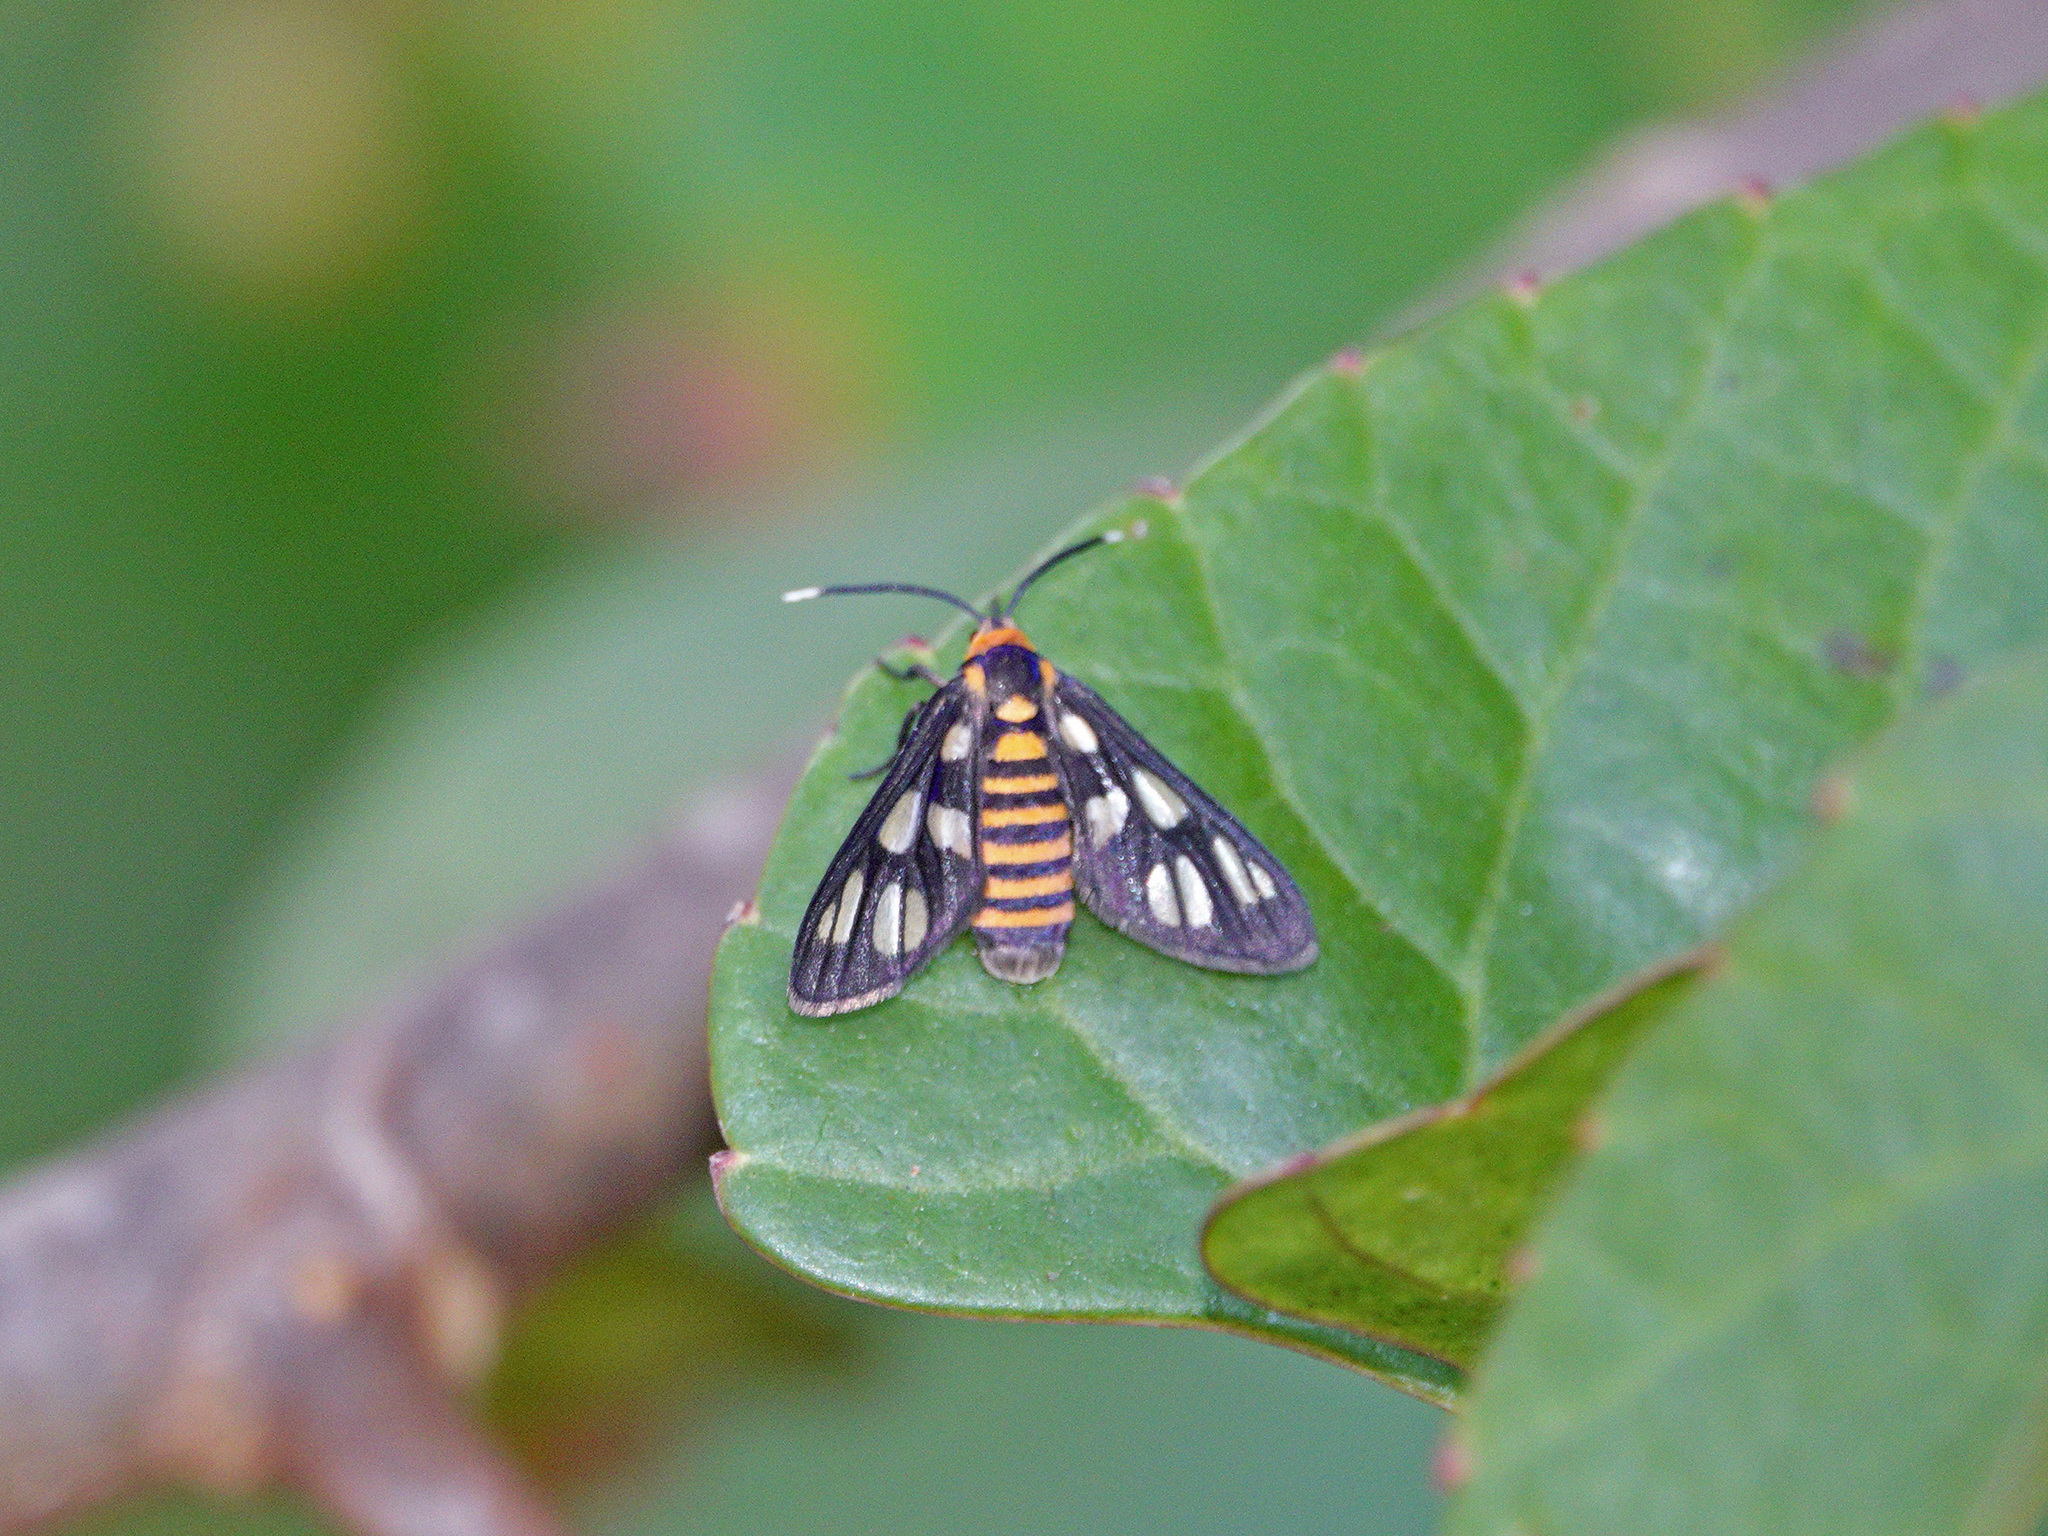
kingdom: Animalia
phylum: Arthropoda
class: Insecta
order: Lepidoptera
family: Erebidae
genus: Amata
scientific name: Amata huebneri
